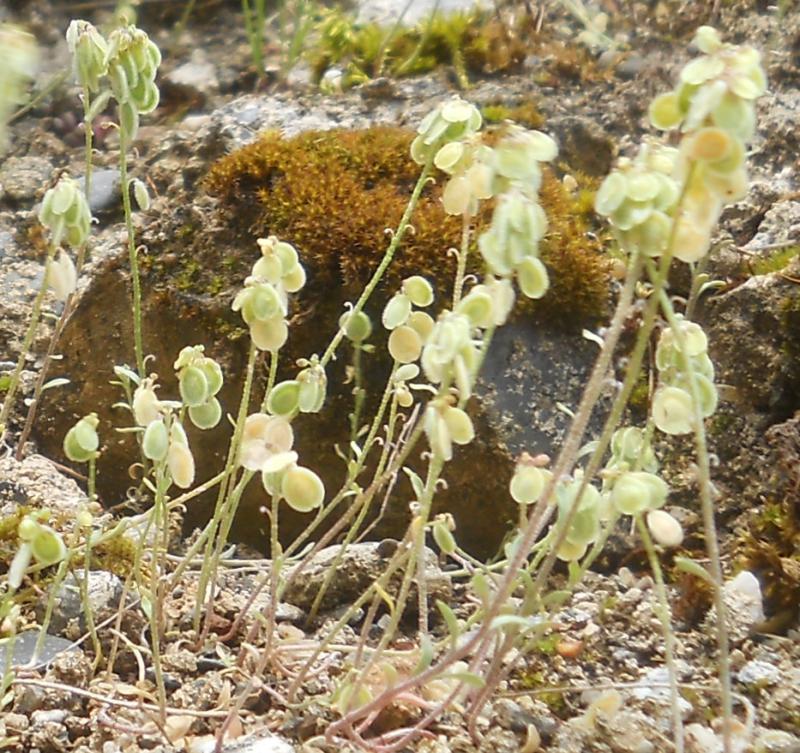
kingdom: Plantae
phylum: Tracheophyta
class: Magnoliopsida
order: Brassicales
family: Brassicaceae
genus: Clypeola
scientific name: Clypeola jonthlaspi
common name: Disk cress
